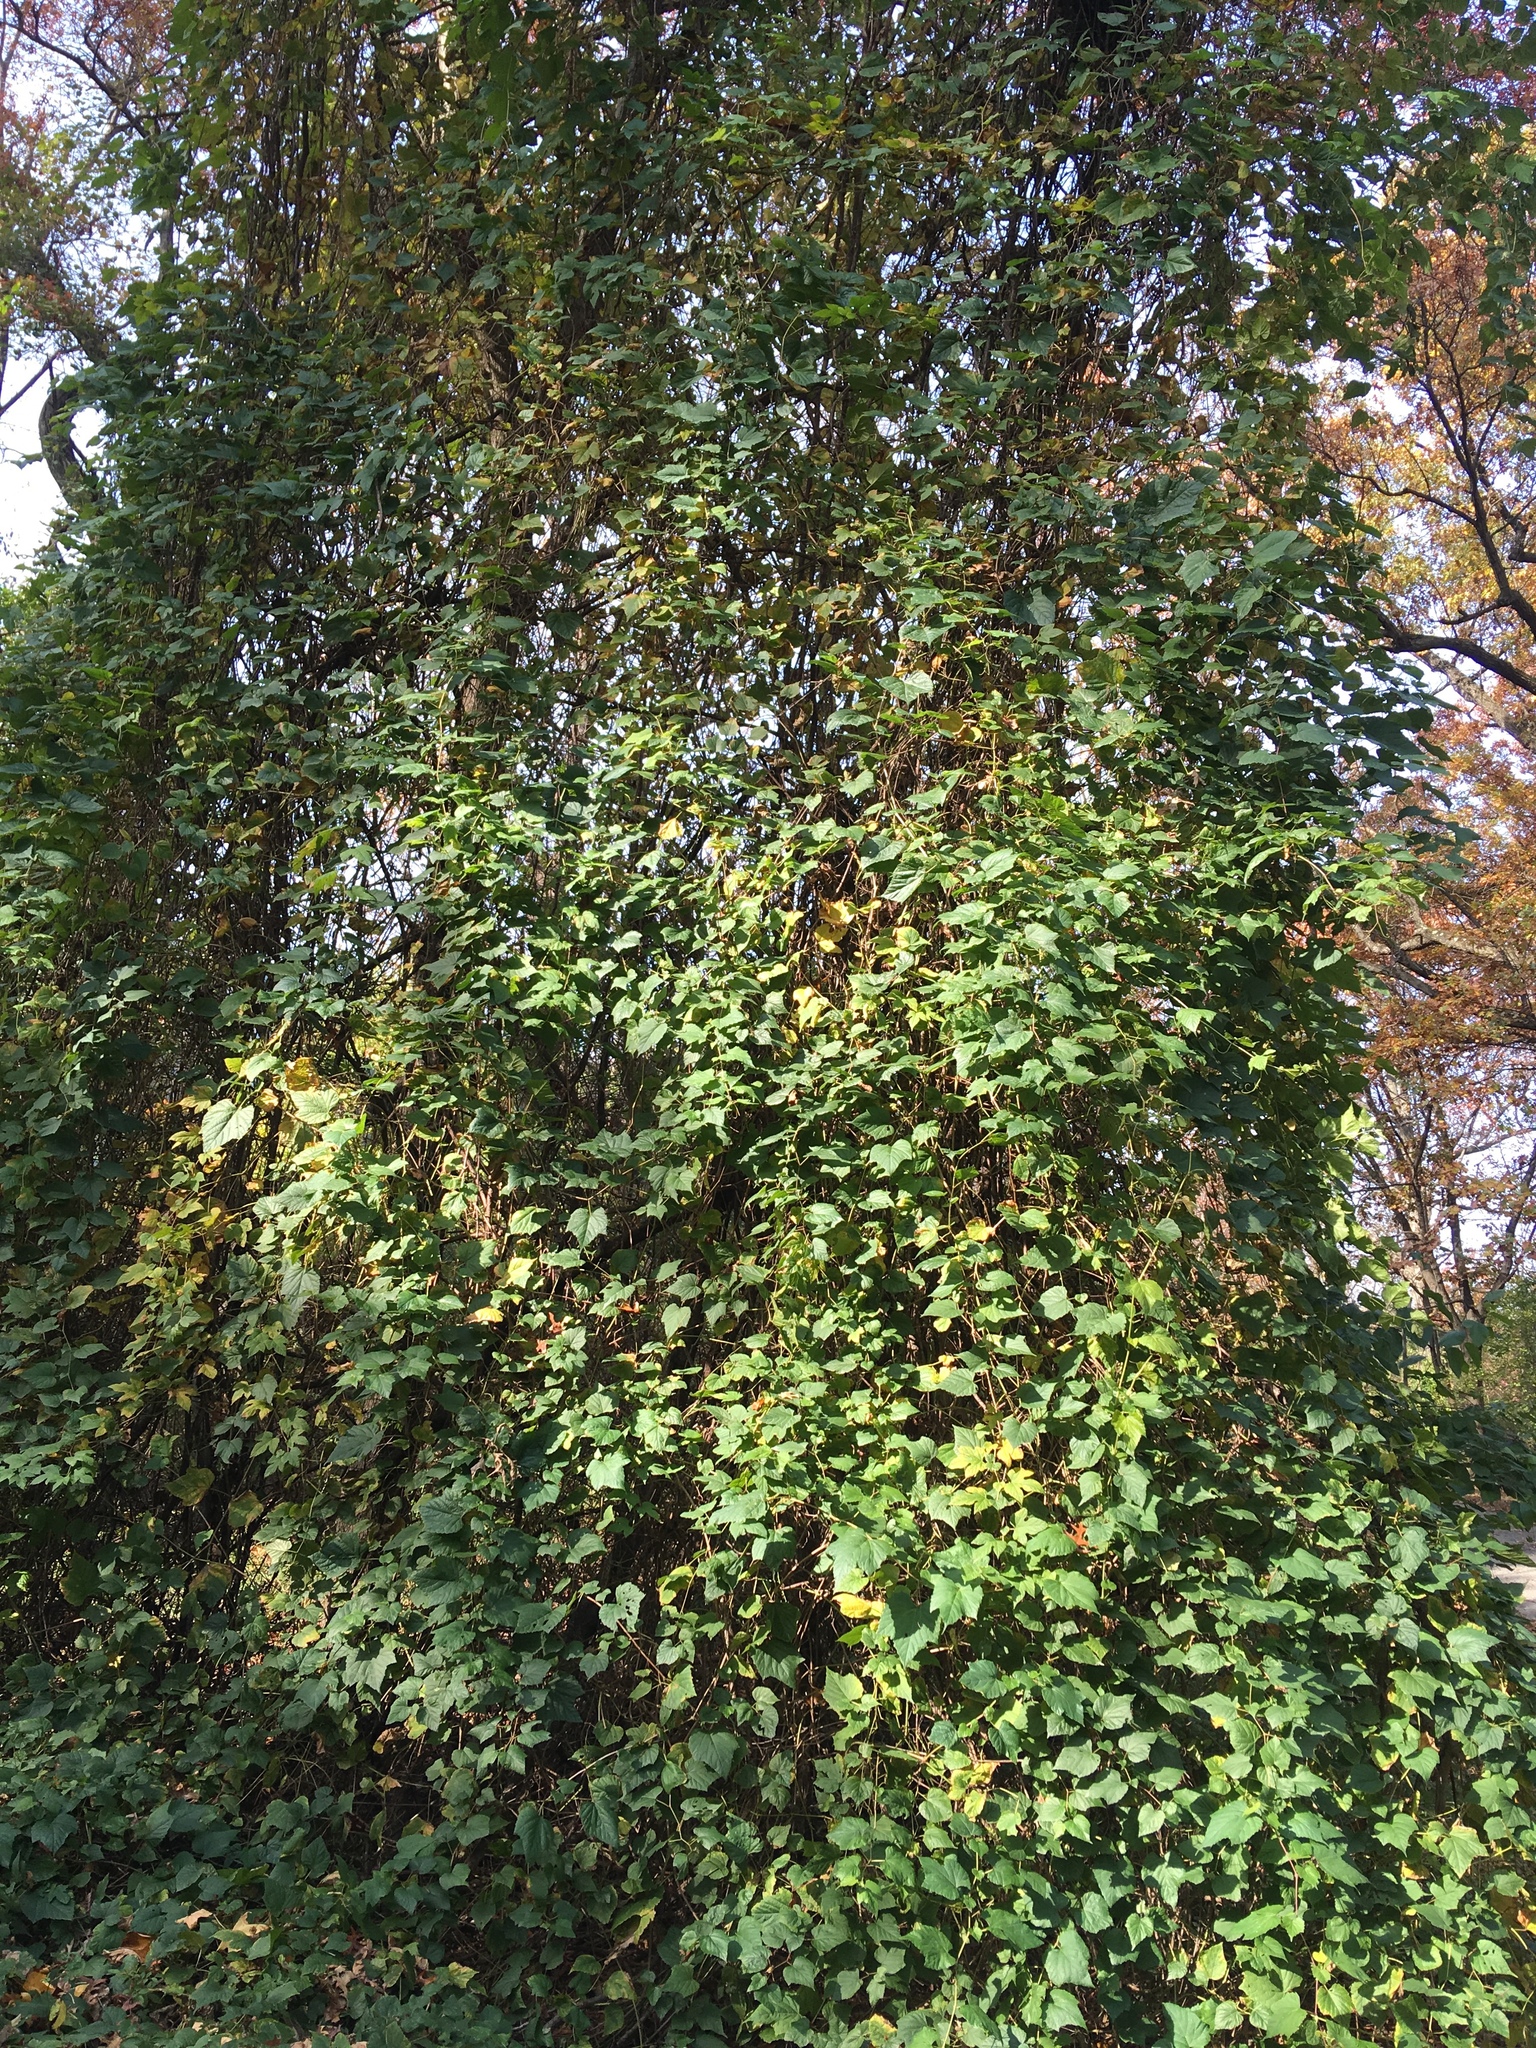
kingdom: Plantae
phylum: Tracheophyta
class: Magnoliopsida
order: Vitales
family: Vitaceae
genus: Ampelopsis
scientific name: Ampelopsis glandulosa
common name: Amur peppervine
